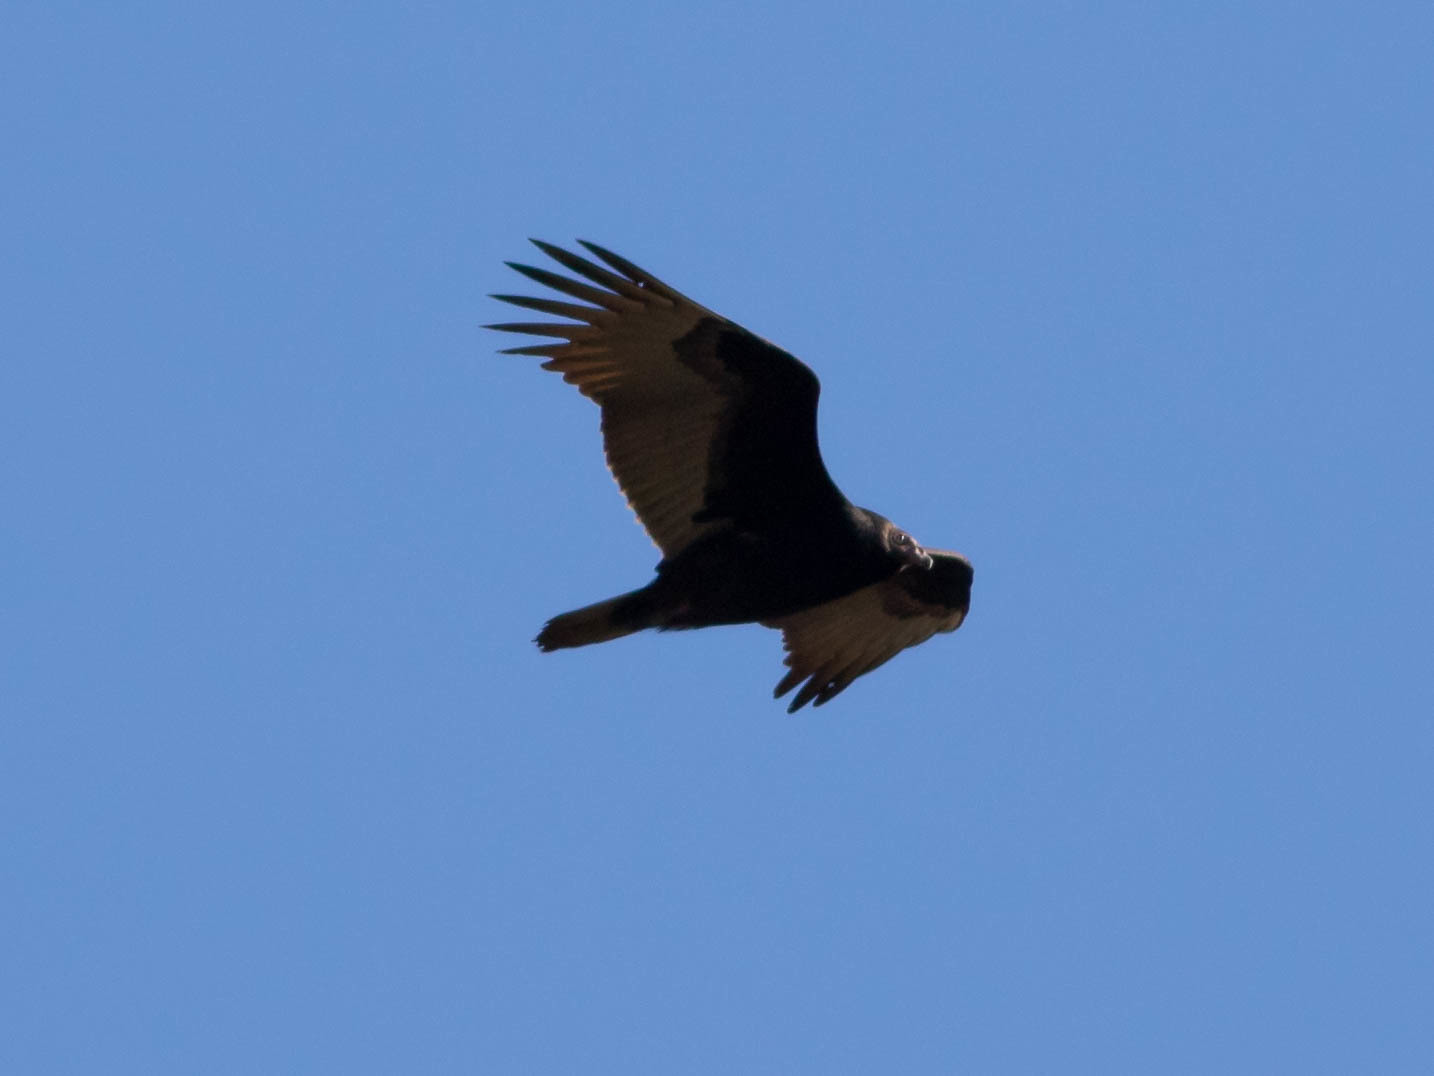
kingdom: Animalia
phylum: Chordata
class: Aves
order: Accipitriformes
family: Cathartidae
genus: Cathartes
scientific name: Cathartes aura
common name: Turkey vulture
